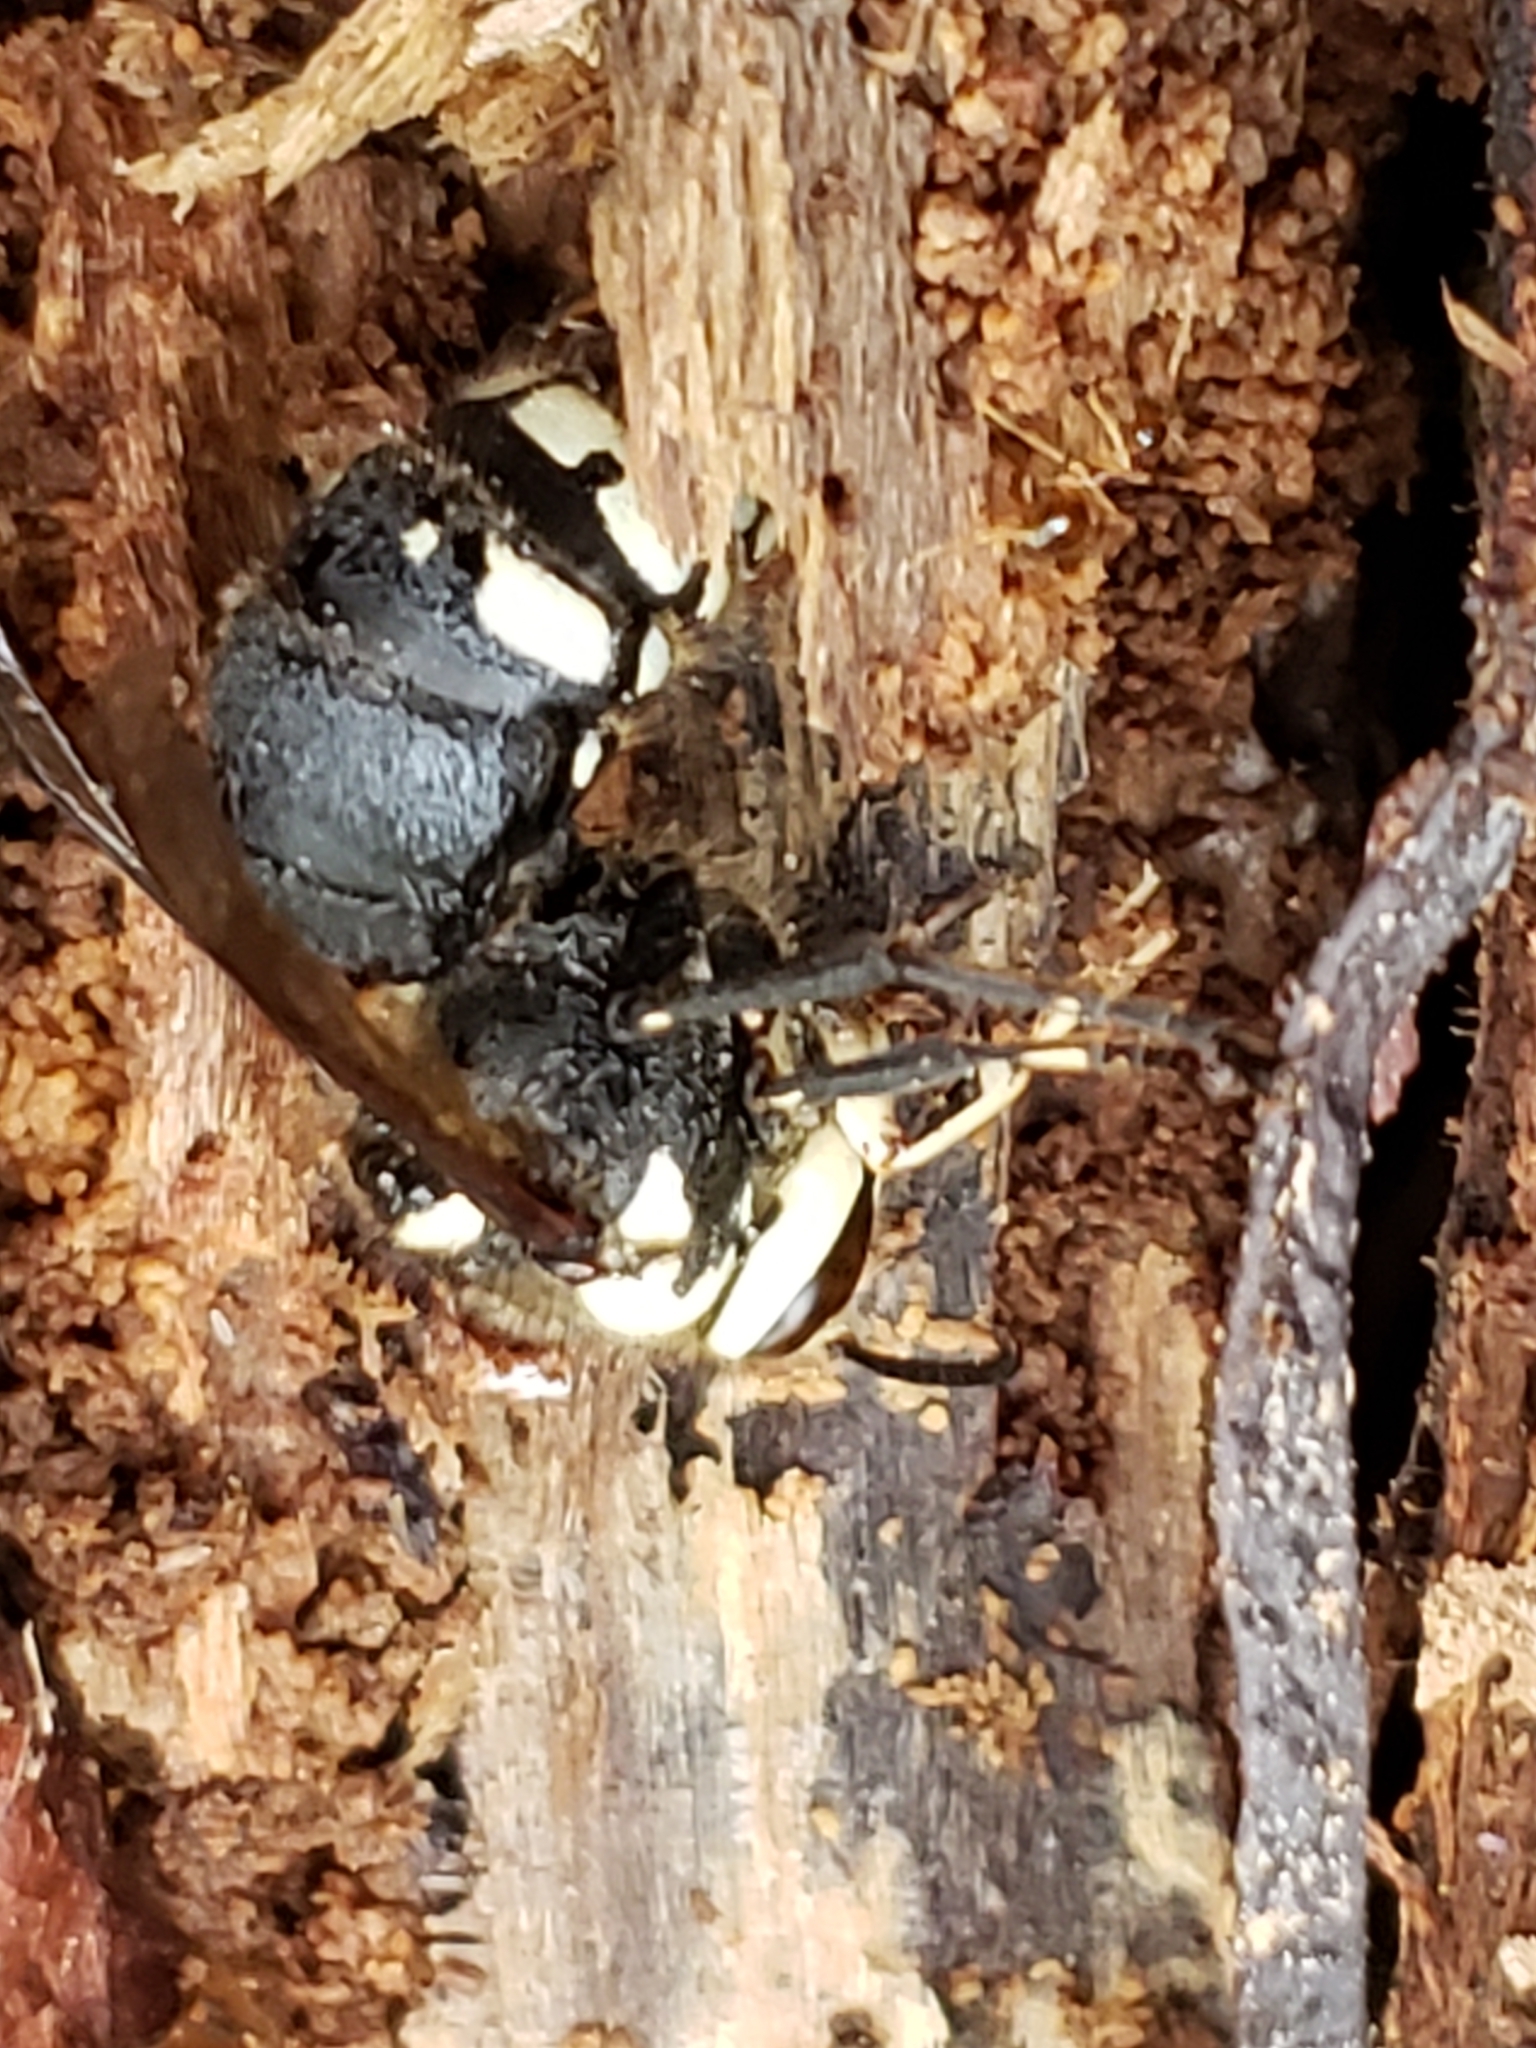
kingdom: Animalia
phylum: Arthropoda
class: Insecta
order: Hymenoptera
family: Vespidae
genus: Dolichovespula
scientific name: Dolichovespula maculata
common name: Bald-faced hornet
